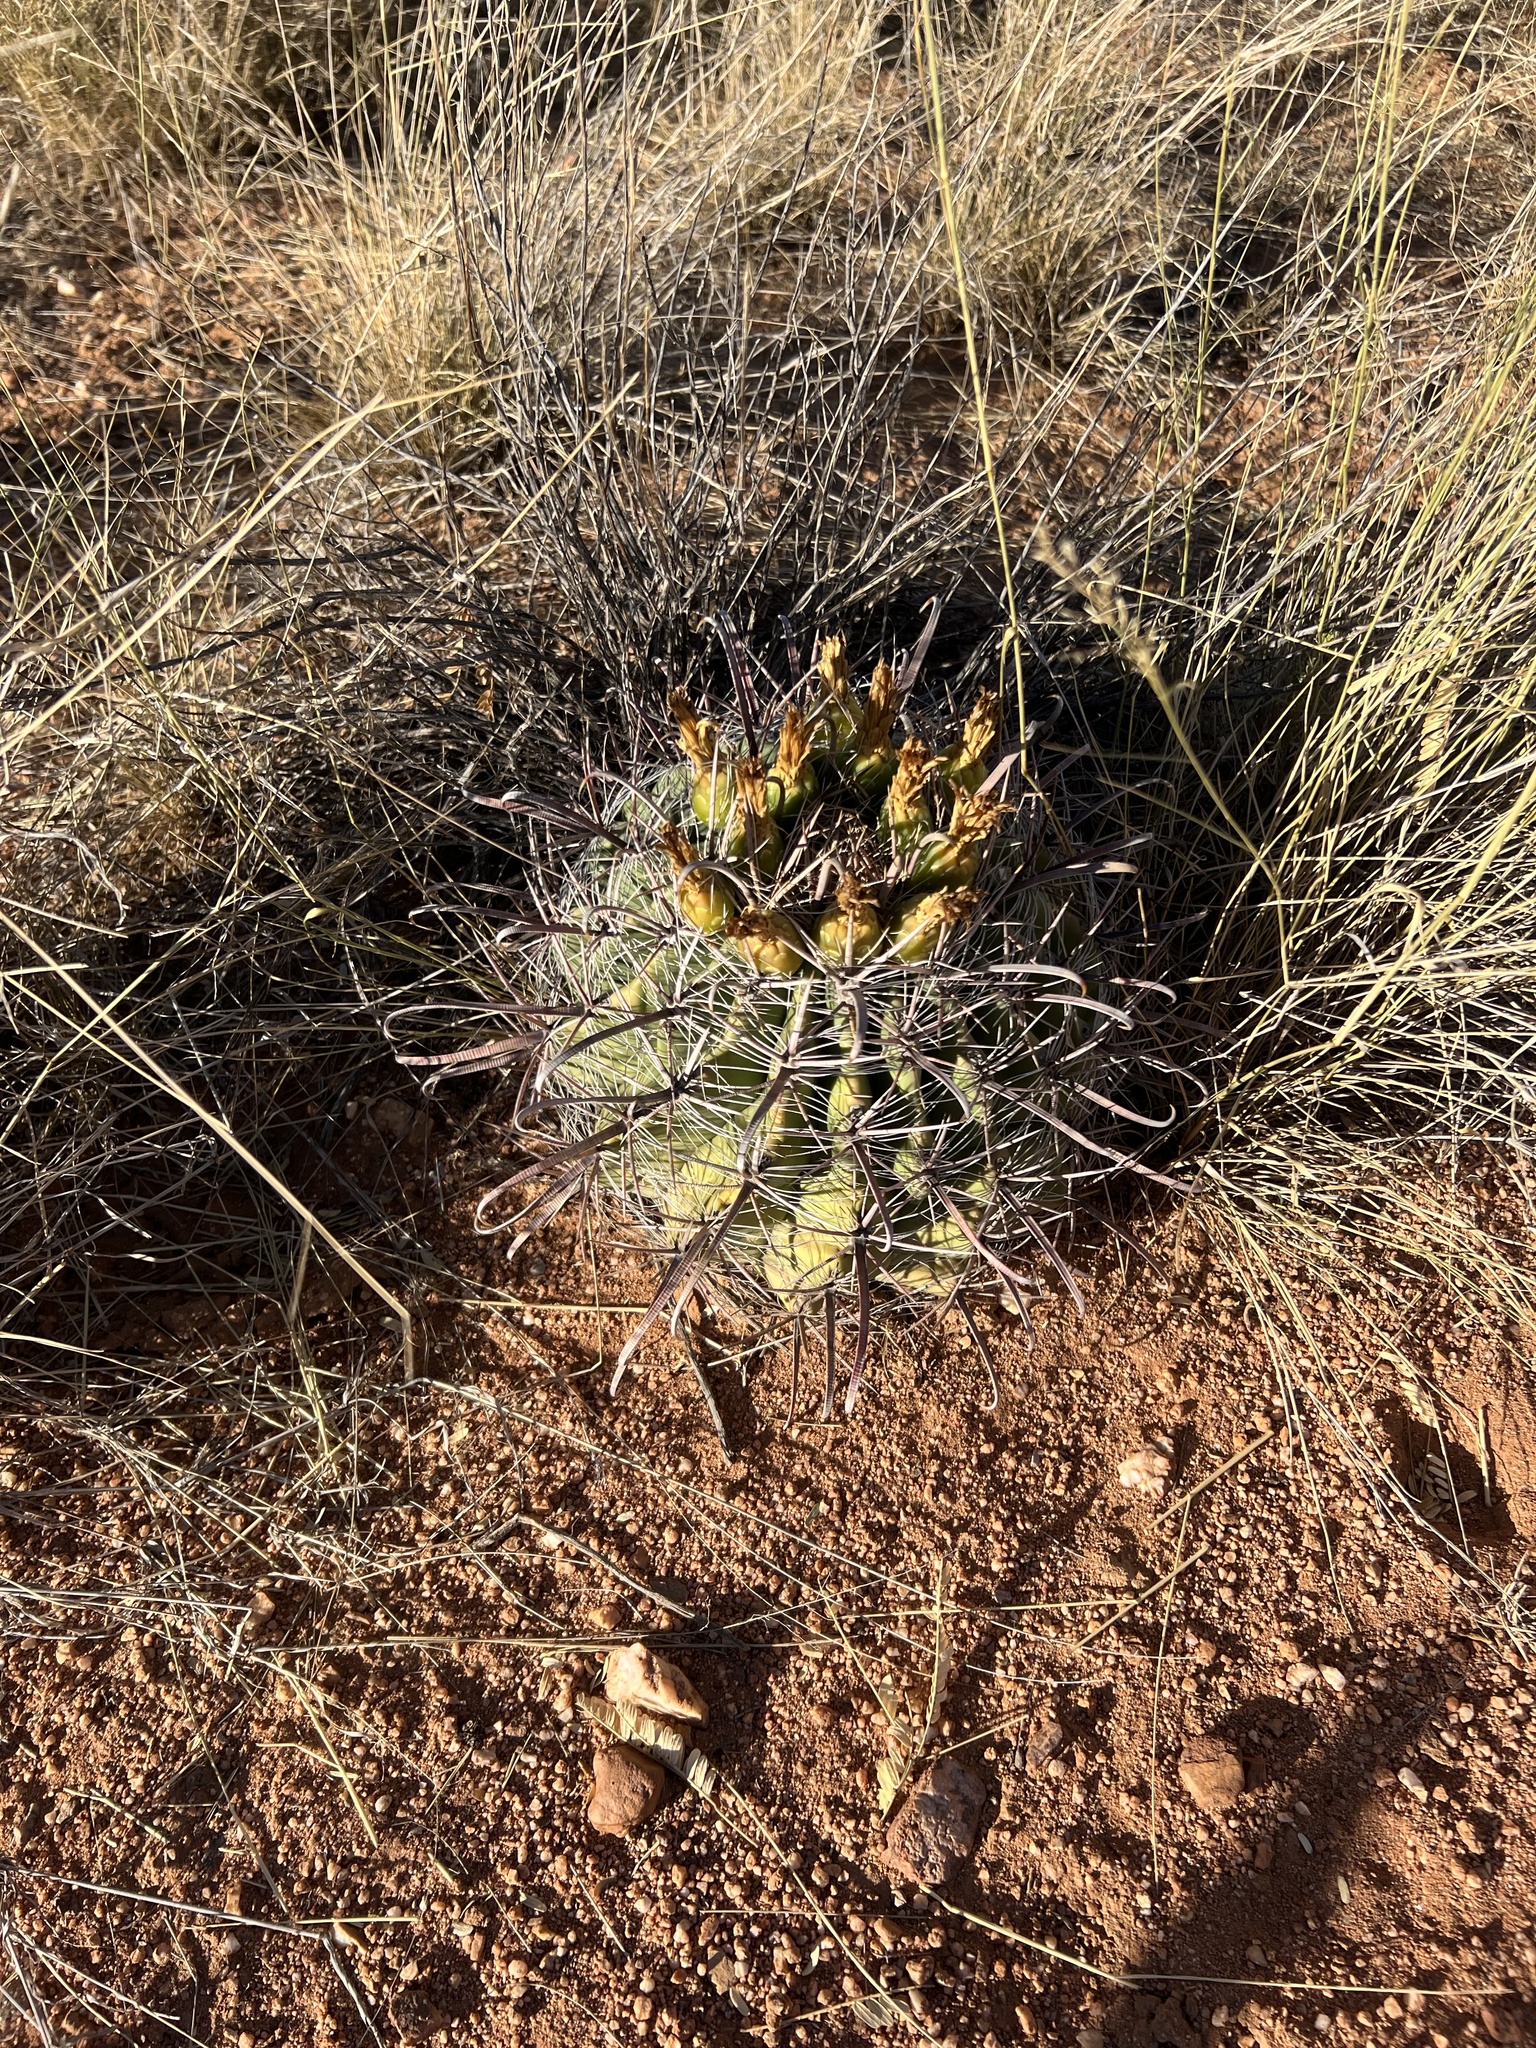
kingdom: Plantae
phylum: Tracheophyta
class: Magnoliopsida
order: Caryophyllales
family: Cactaceae
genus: Ferocactus
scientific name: Ferocactus wislizeni
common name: Candy barrel cactus
